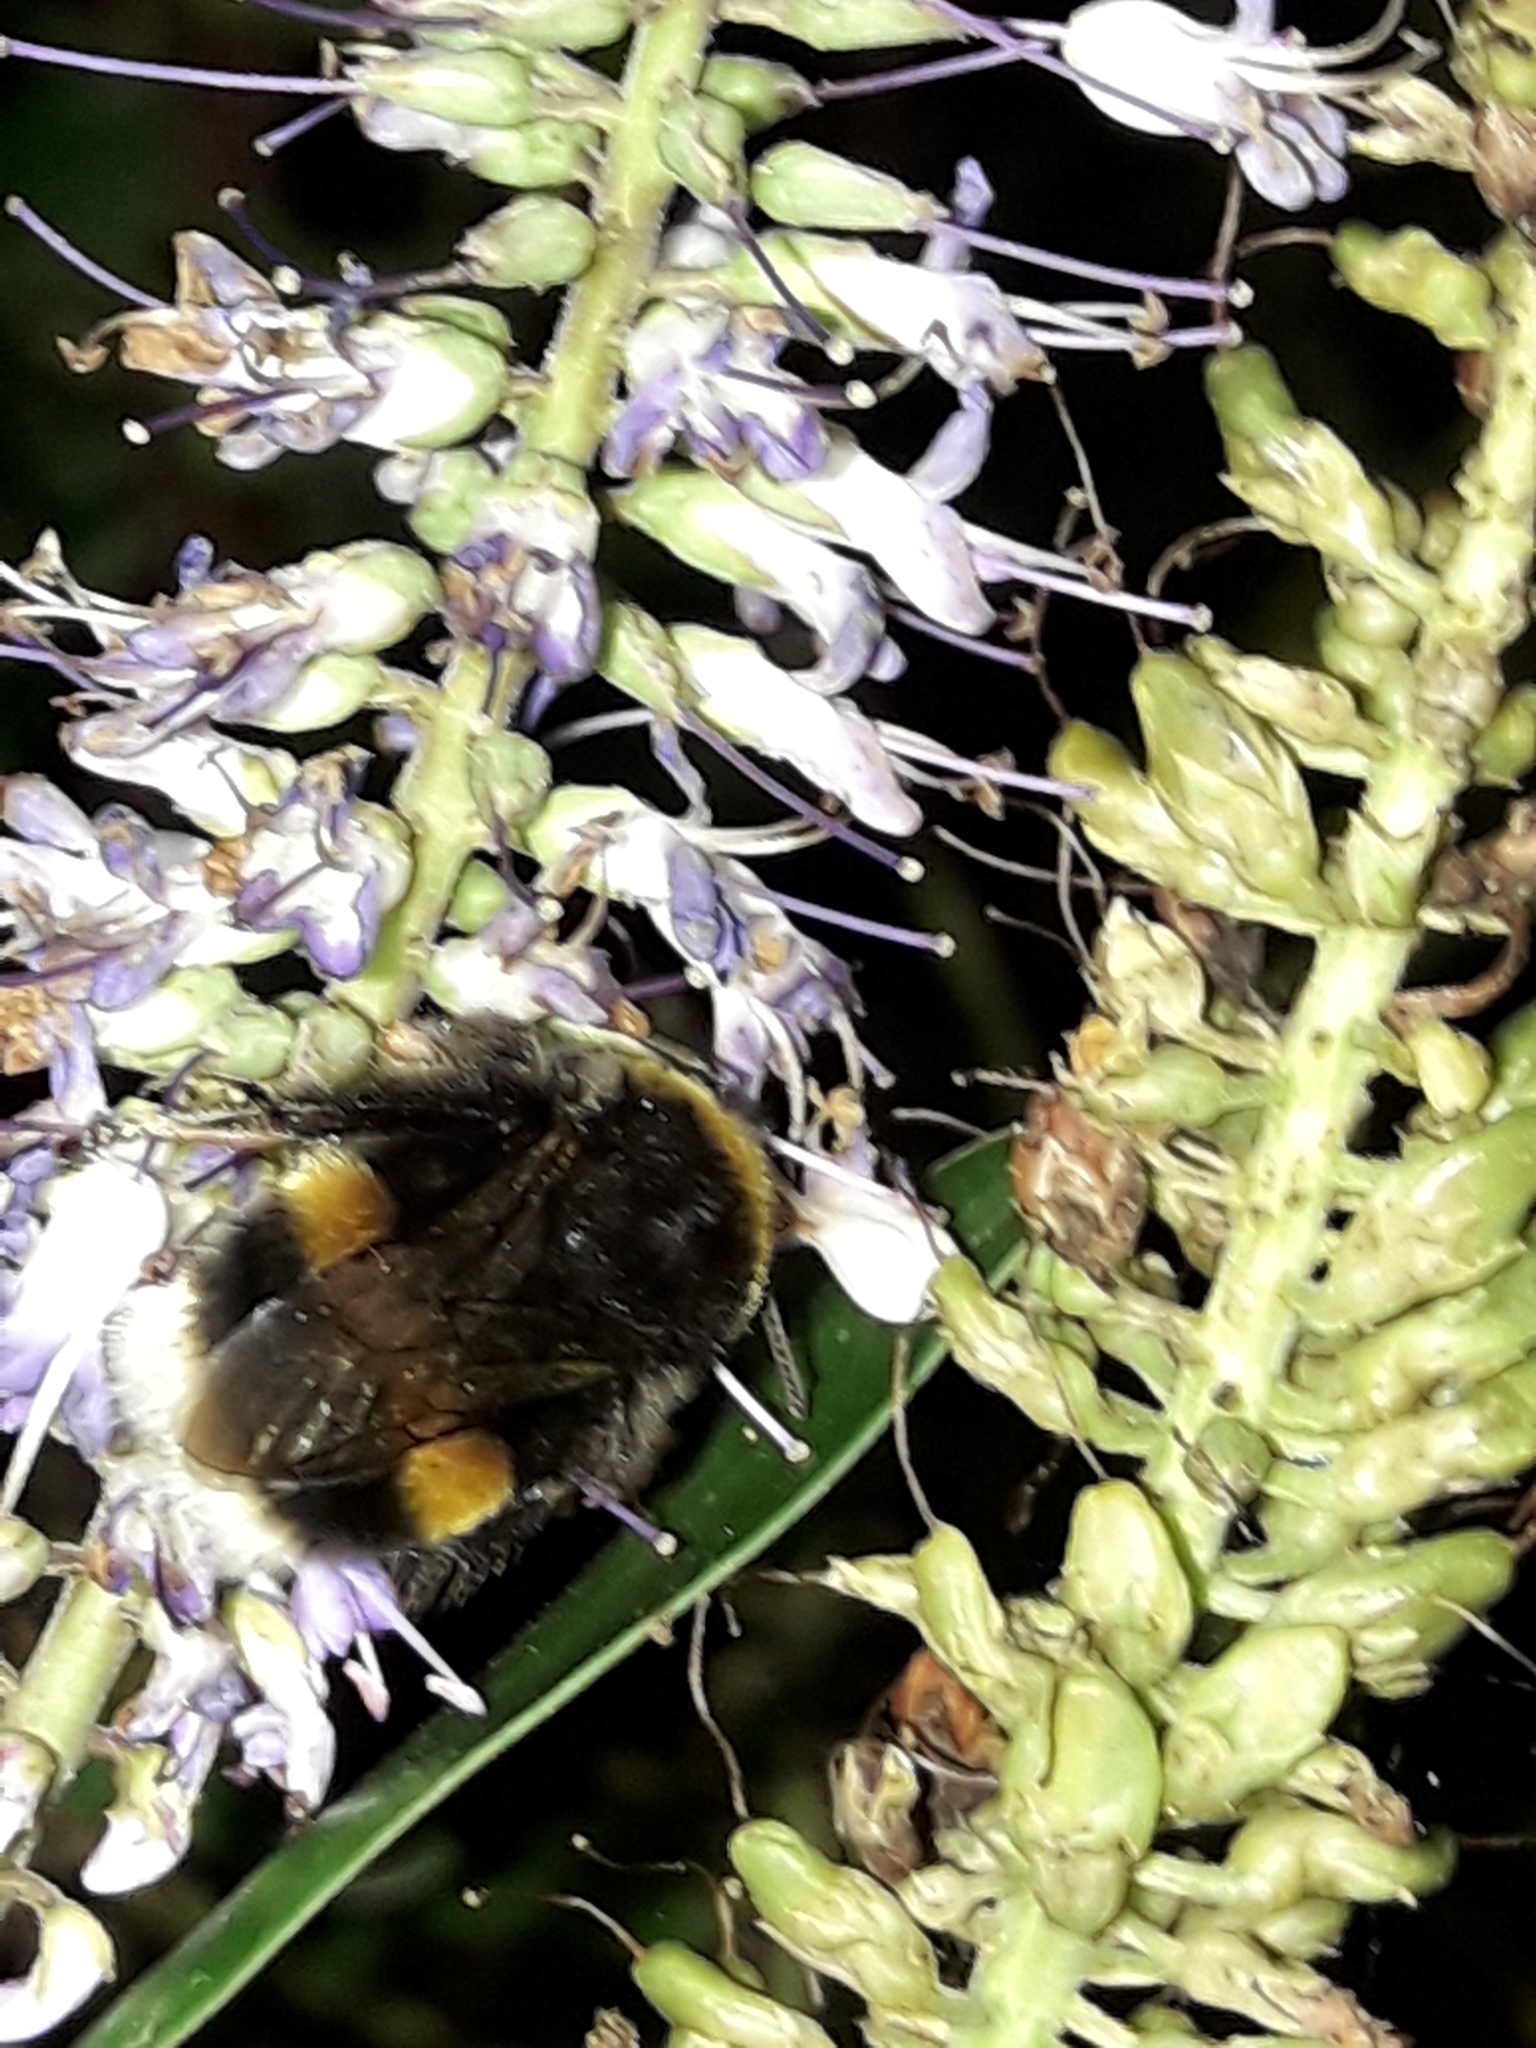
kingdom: Animalia
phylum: Arthropoda
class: Insecta
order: Hymenoptera
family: Apidae
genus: Bombus
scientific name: Bombus terrestris
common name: Buff-tailed bumblebee
